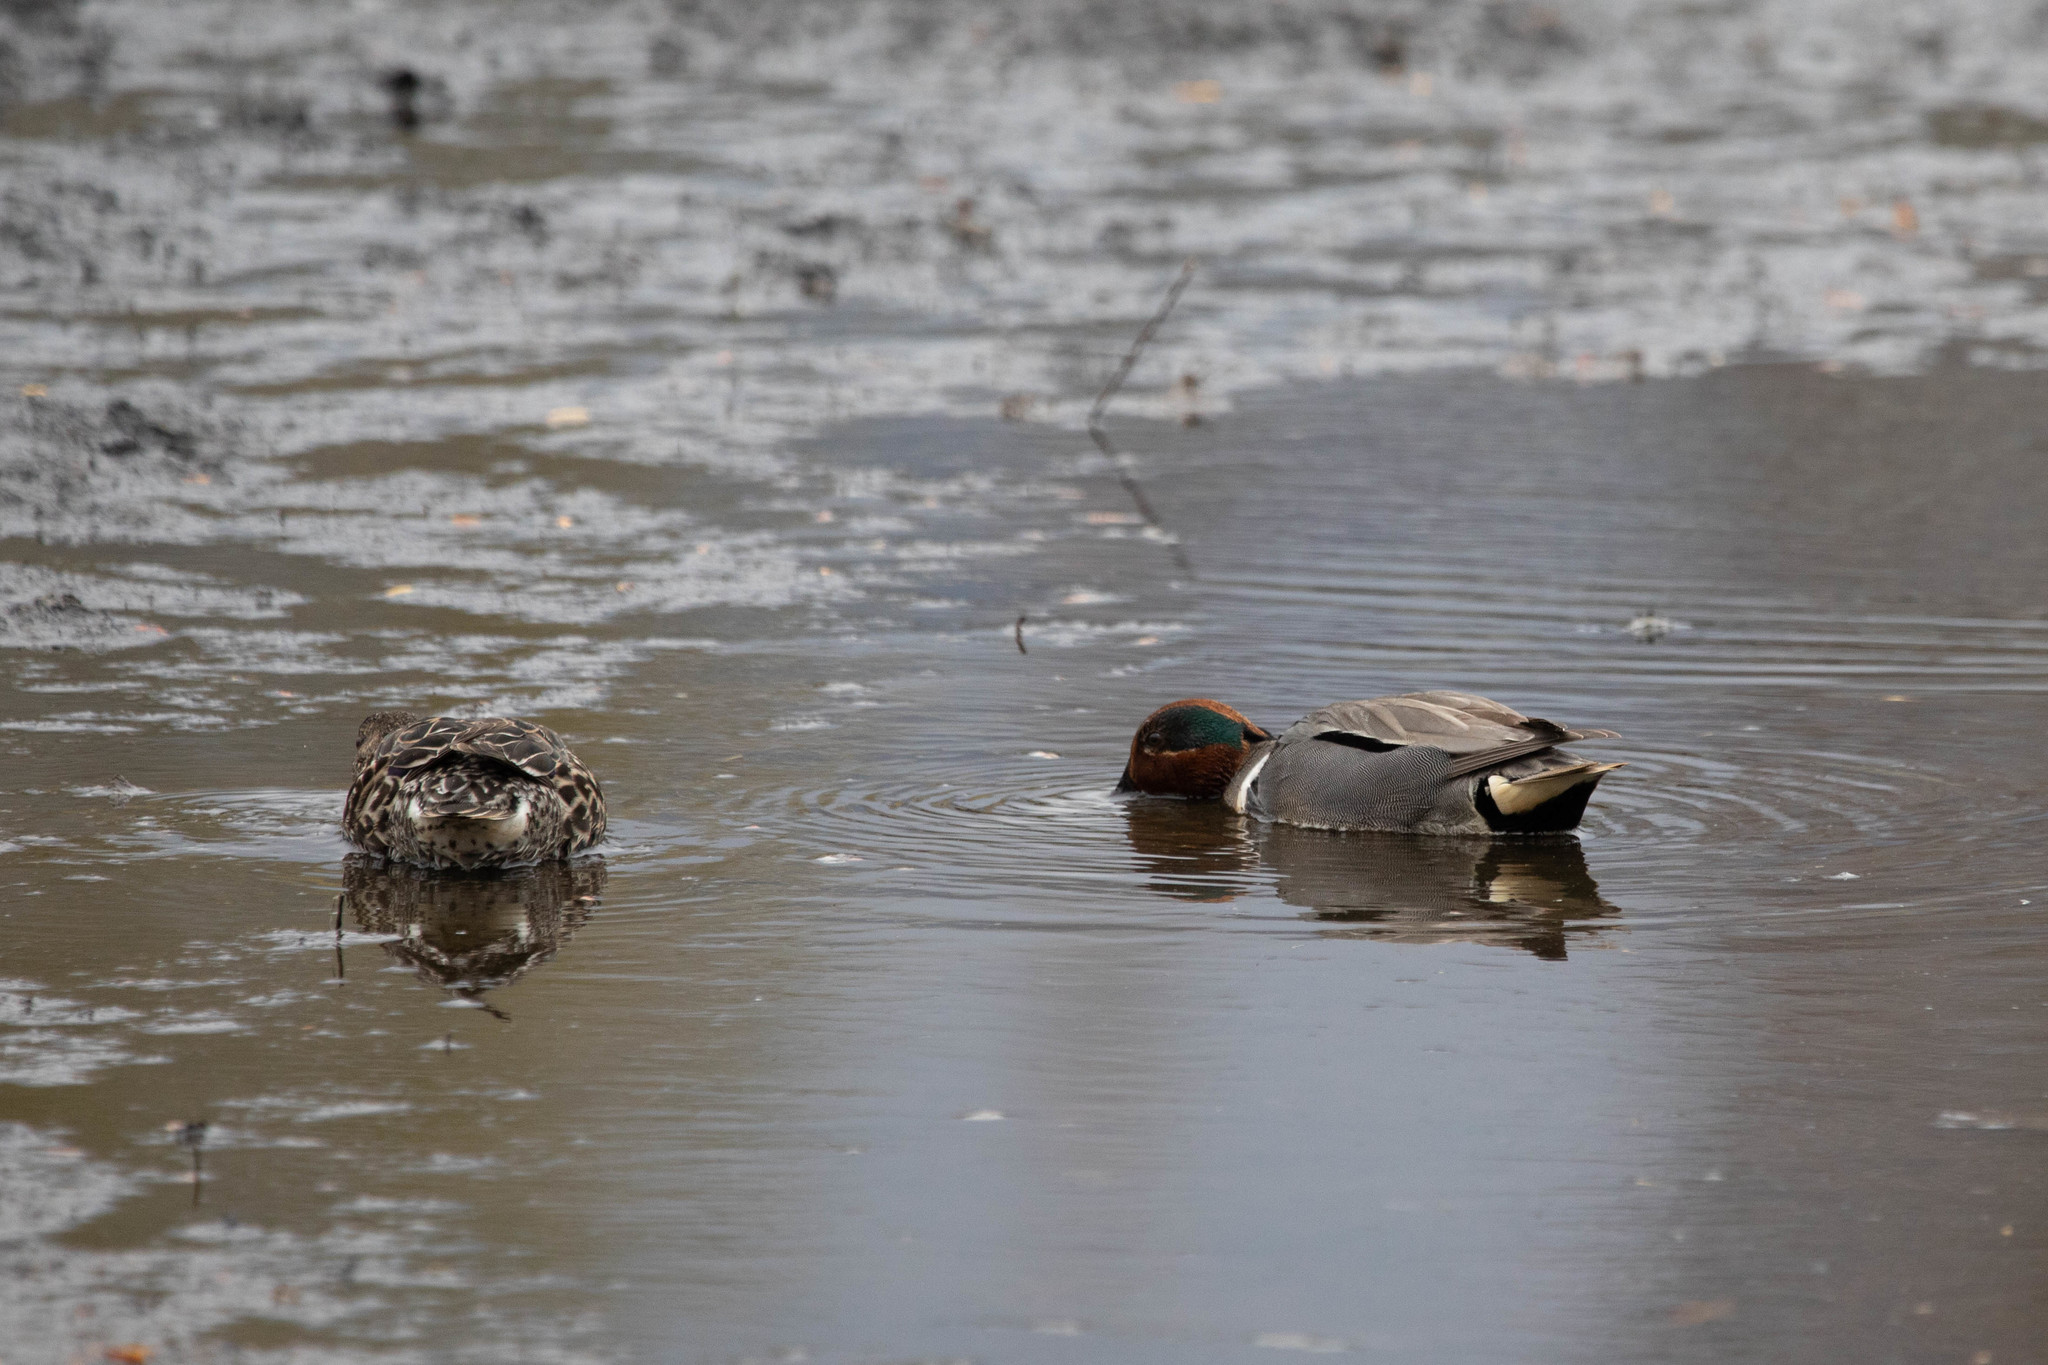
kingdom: Animalia
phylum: Chordata
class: Aves
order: Anseriformes
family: Anatidae
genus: Anas
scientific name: Anas carolinensis
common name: Green-winged teal
